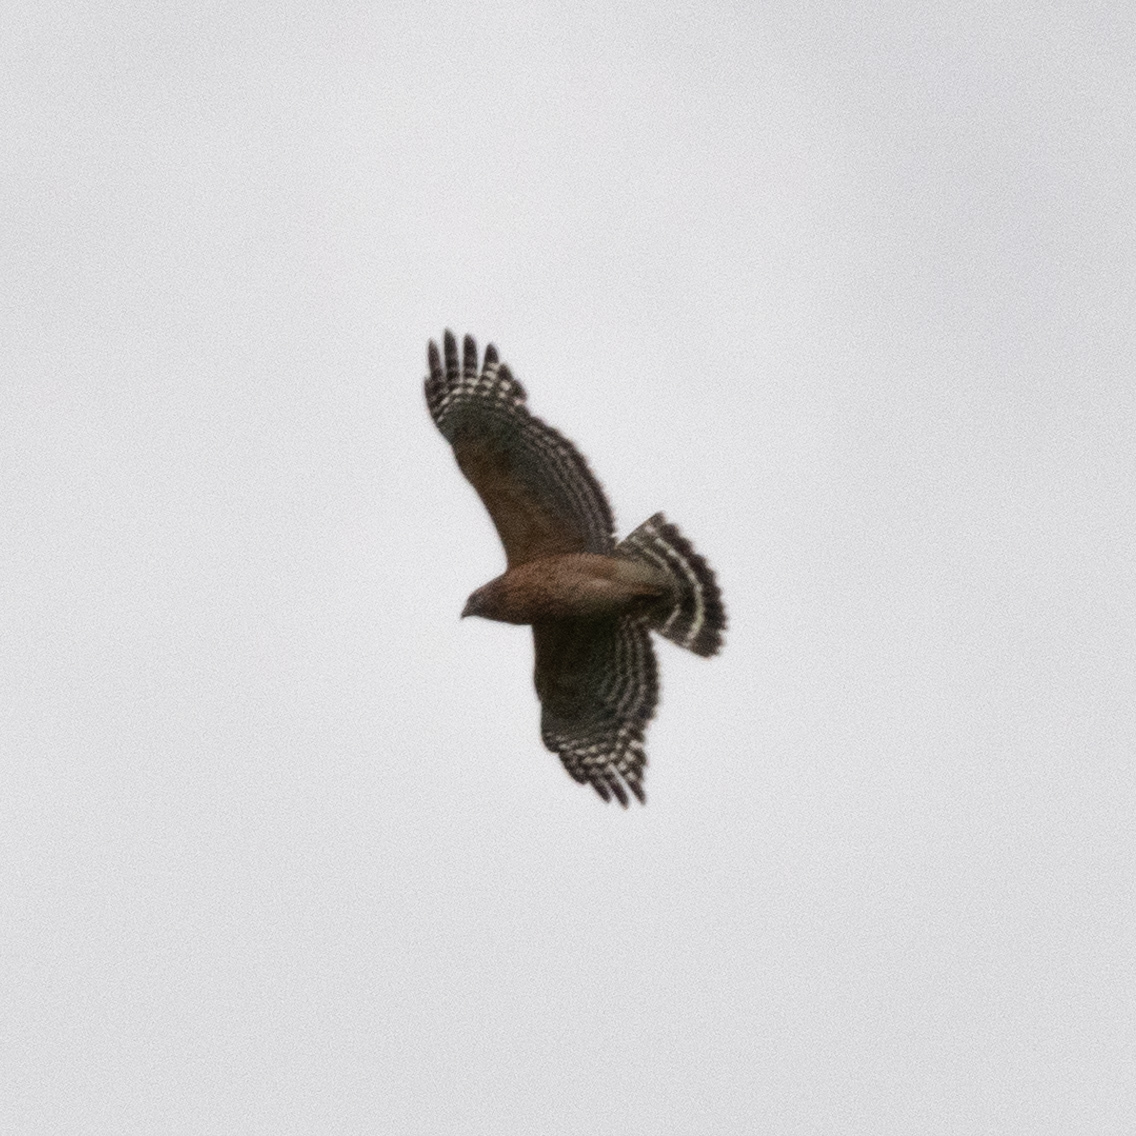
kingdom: Animalia
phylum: Chordata
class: Aves
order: Accipitriformes
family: Accipitridae
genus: Buteo
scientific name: Buteo lineatus
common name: Red-shouldered hawk
